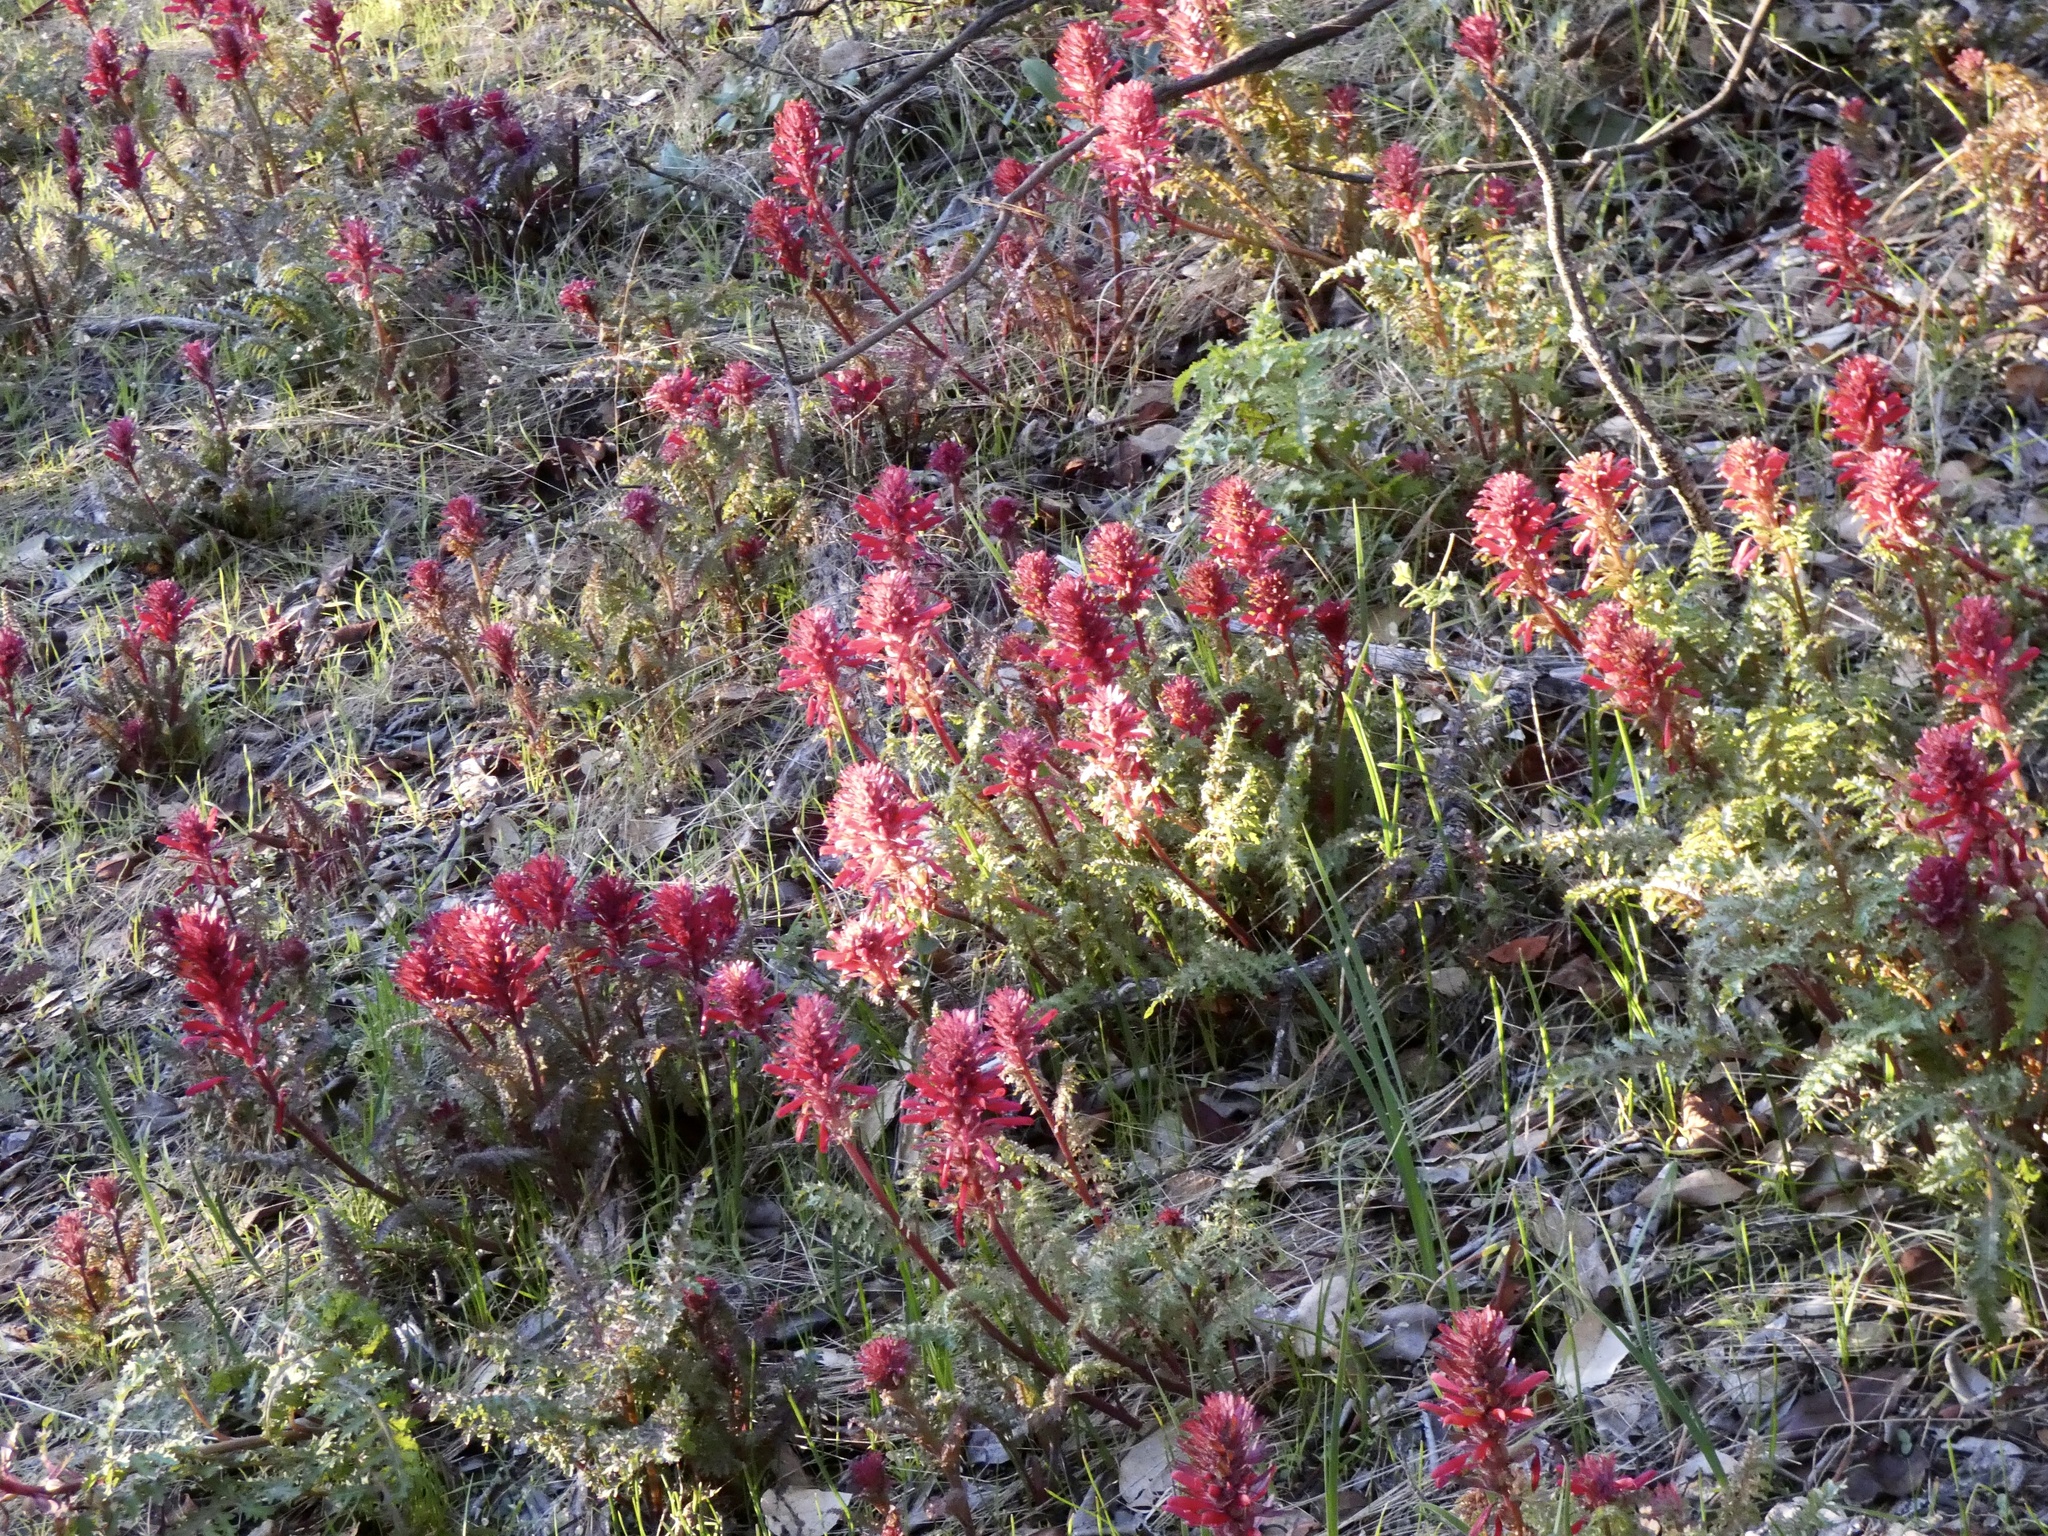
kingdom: Plantae
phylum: Tracheophyta
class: Magnoliopsida
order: Lamiales
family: Orobanchaceae
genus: Pedicularis
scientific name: Pedicularis densiflora
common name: Indian warrior
